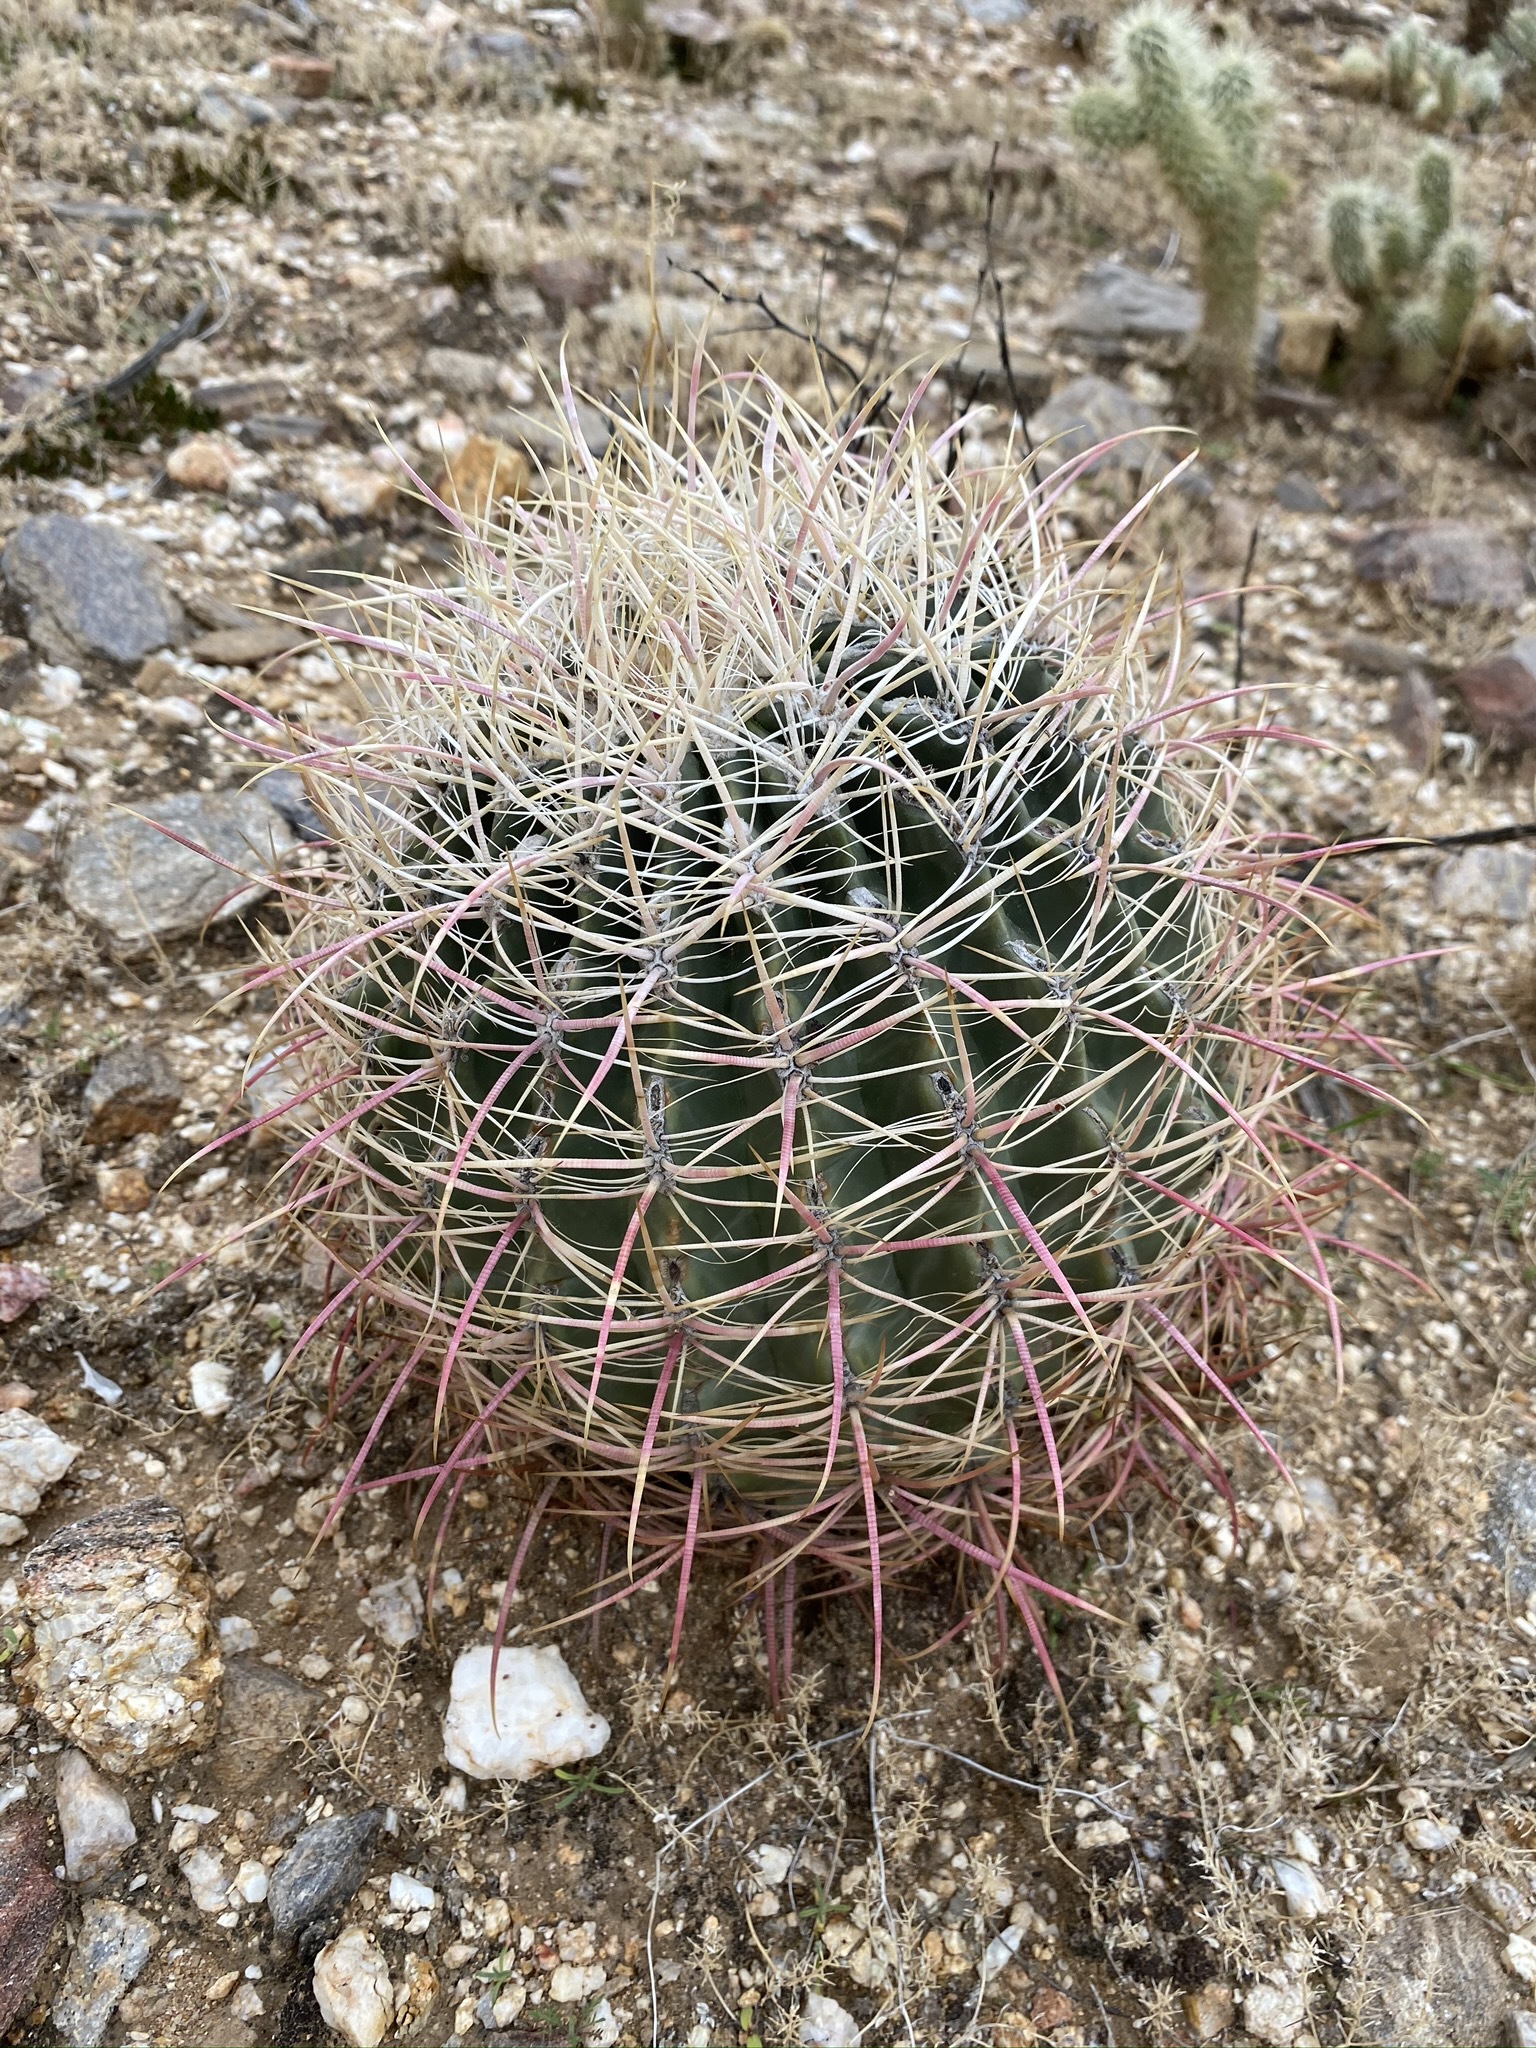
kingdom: Plantae
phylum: Tracheophyta
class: Magnoliopsida
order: Caryophyllales
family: Cactaceae
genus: Ferocactus
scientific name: Ferocactus cylindraceus
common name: California barrel cactus
